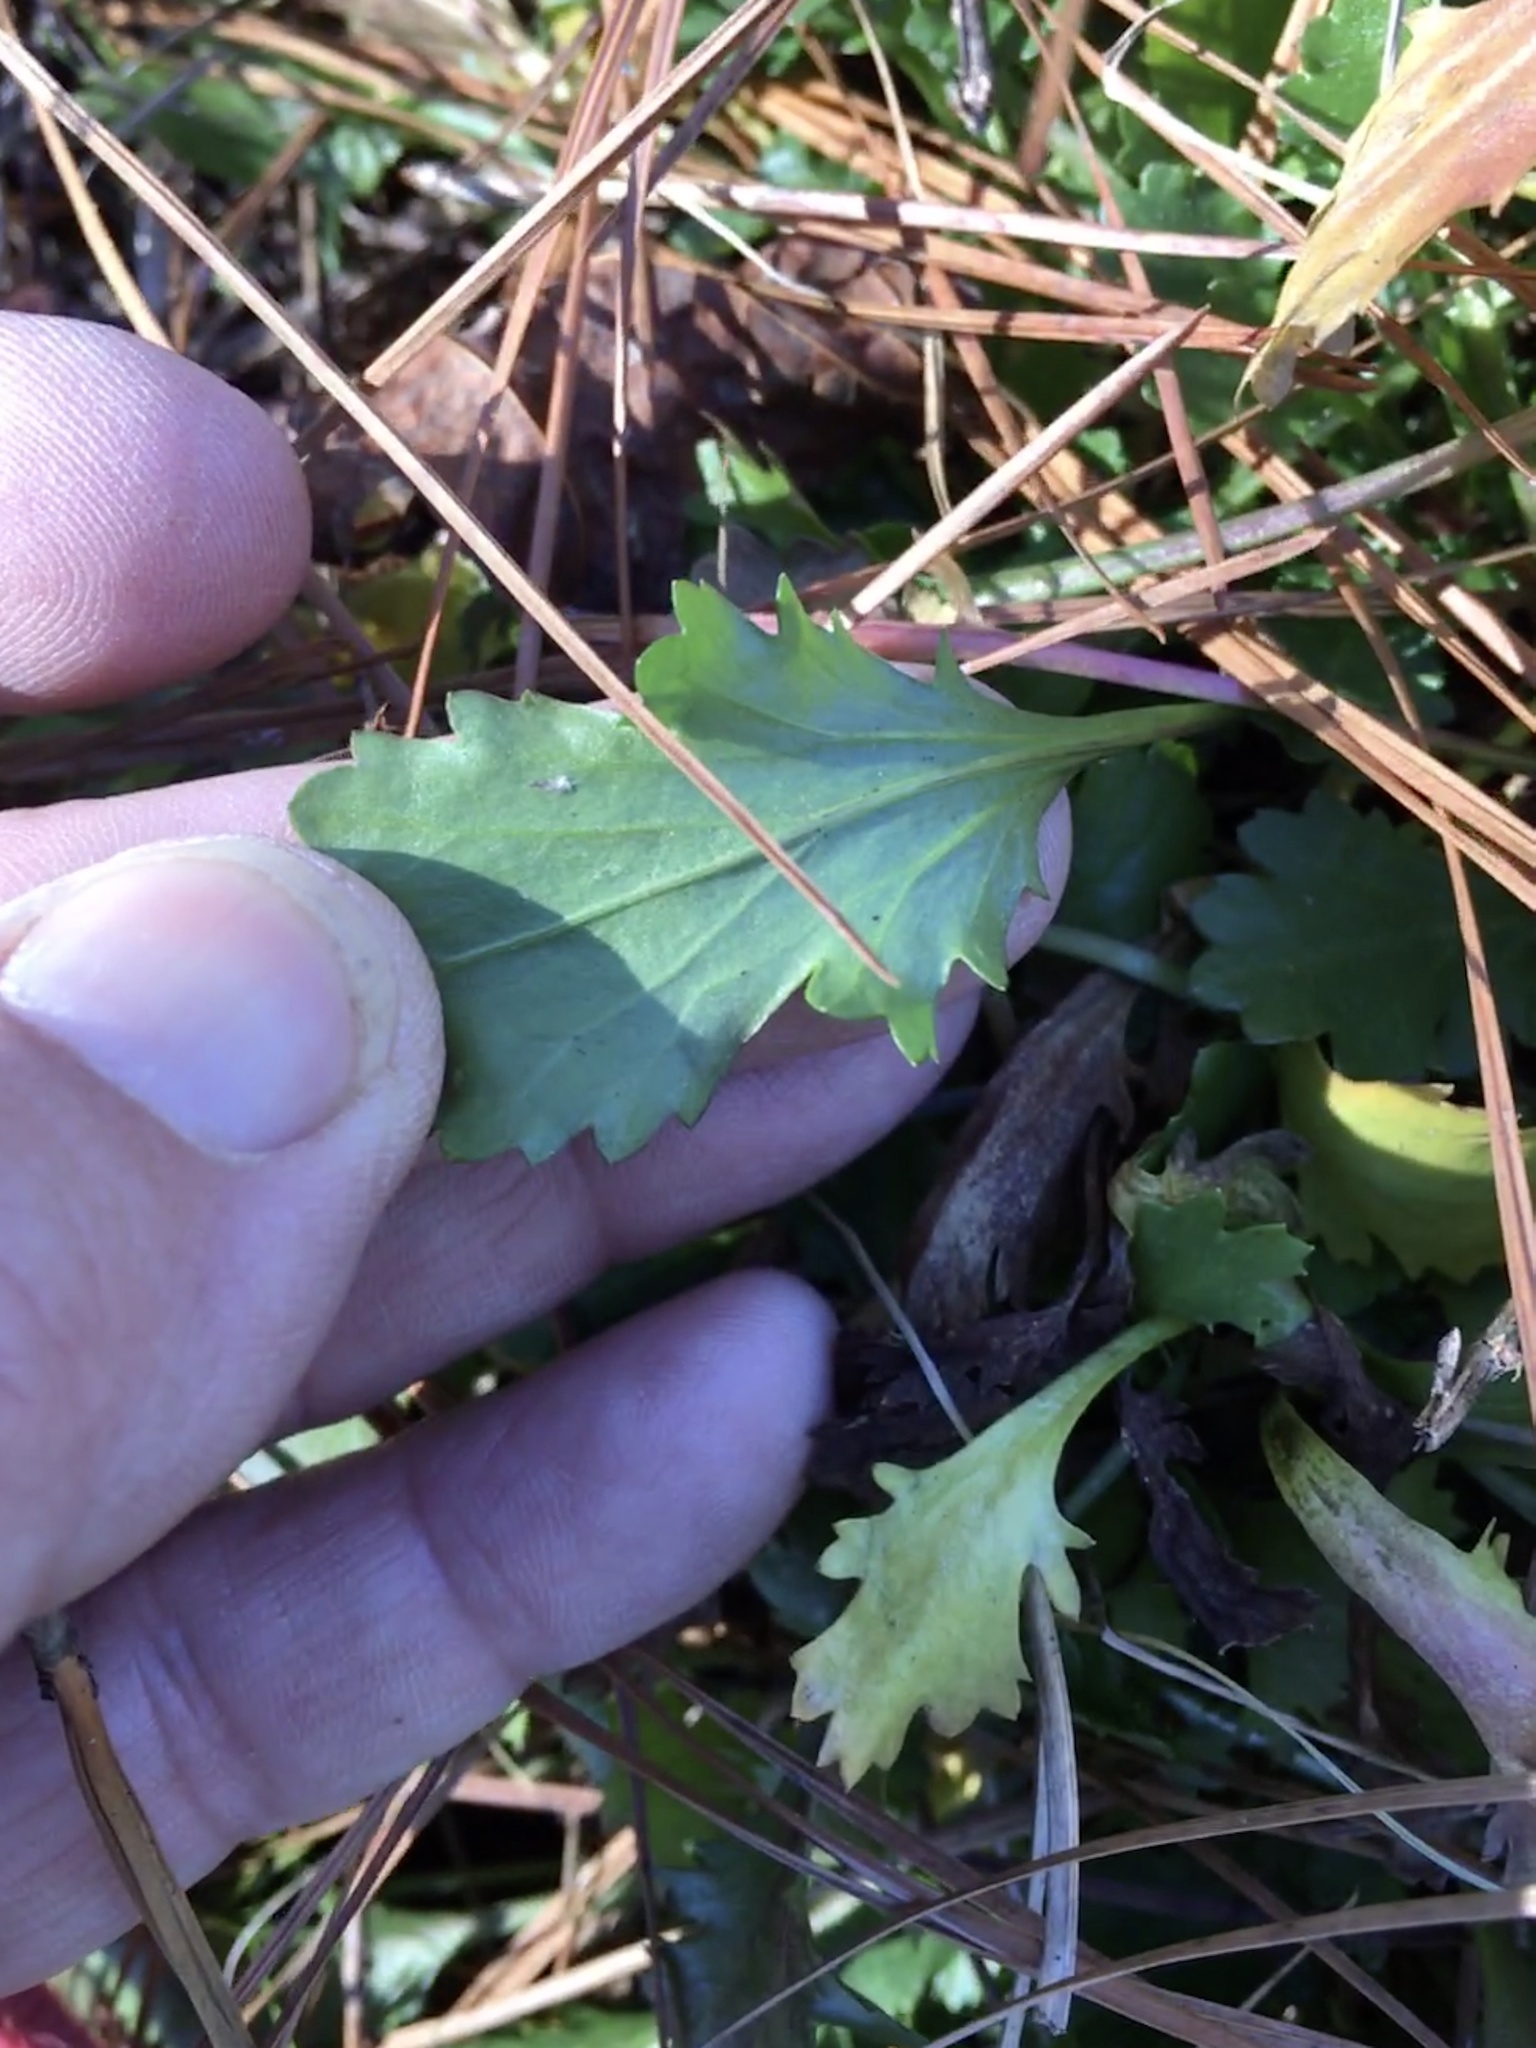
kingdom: Plantae
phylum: Tracheophyta
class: Magnoliopsida
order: Asterales
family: Asteraceae
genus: Leucanthemum
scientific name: Leucanthemum vulgare
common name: Oxeye daisy
